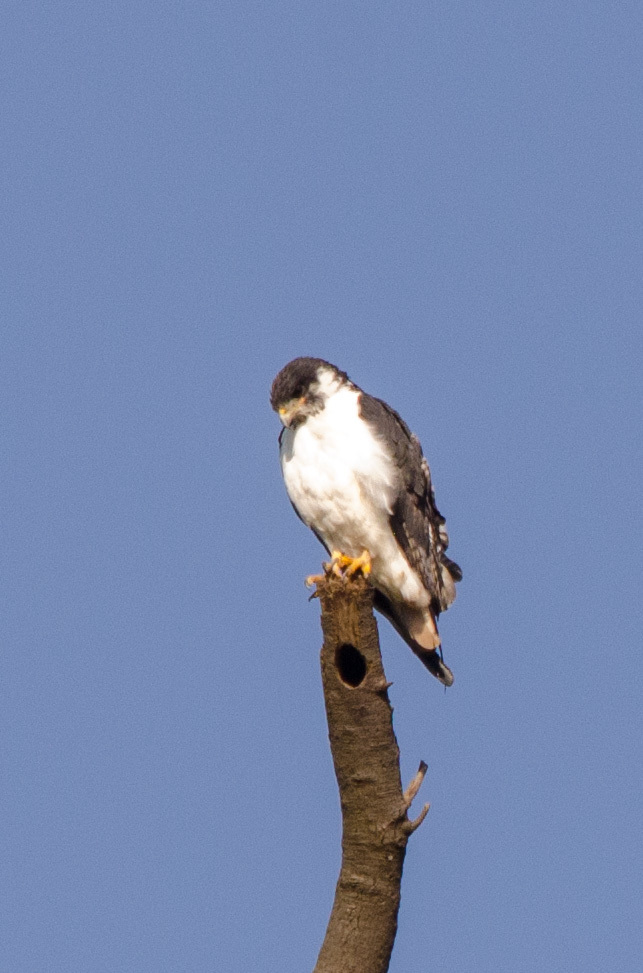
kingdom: Animalia
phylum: Chordata
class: Aves
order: Accipitriformes
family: Accipitridae
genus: Buteo
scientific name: Buteo augur
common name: Augur buzzard
